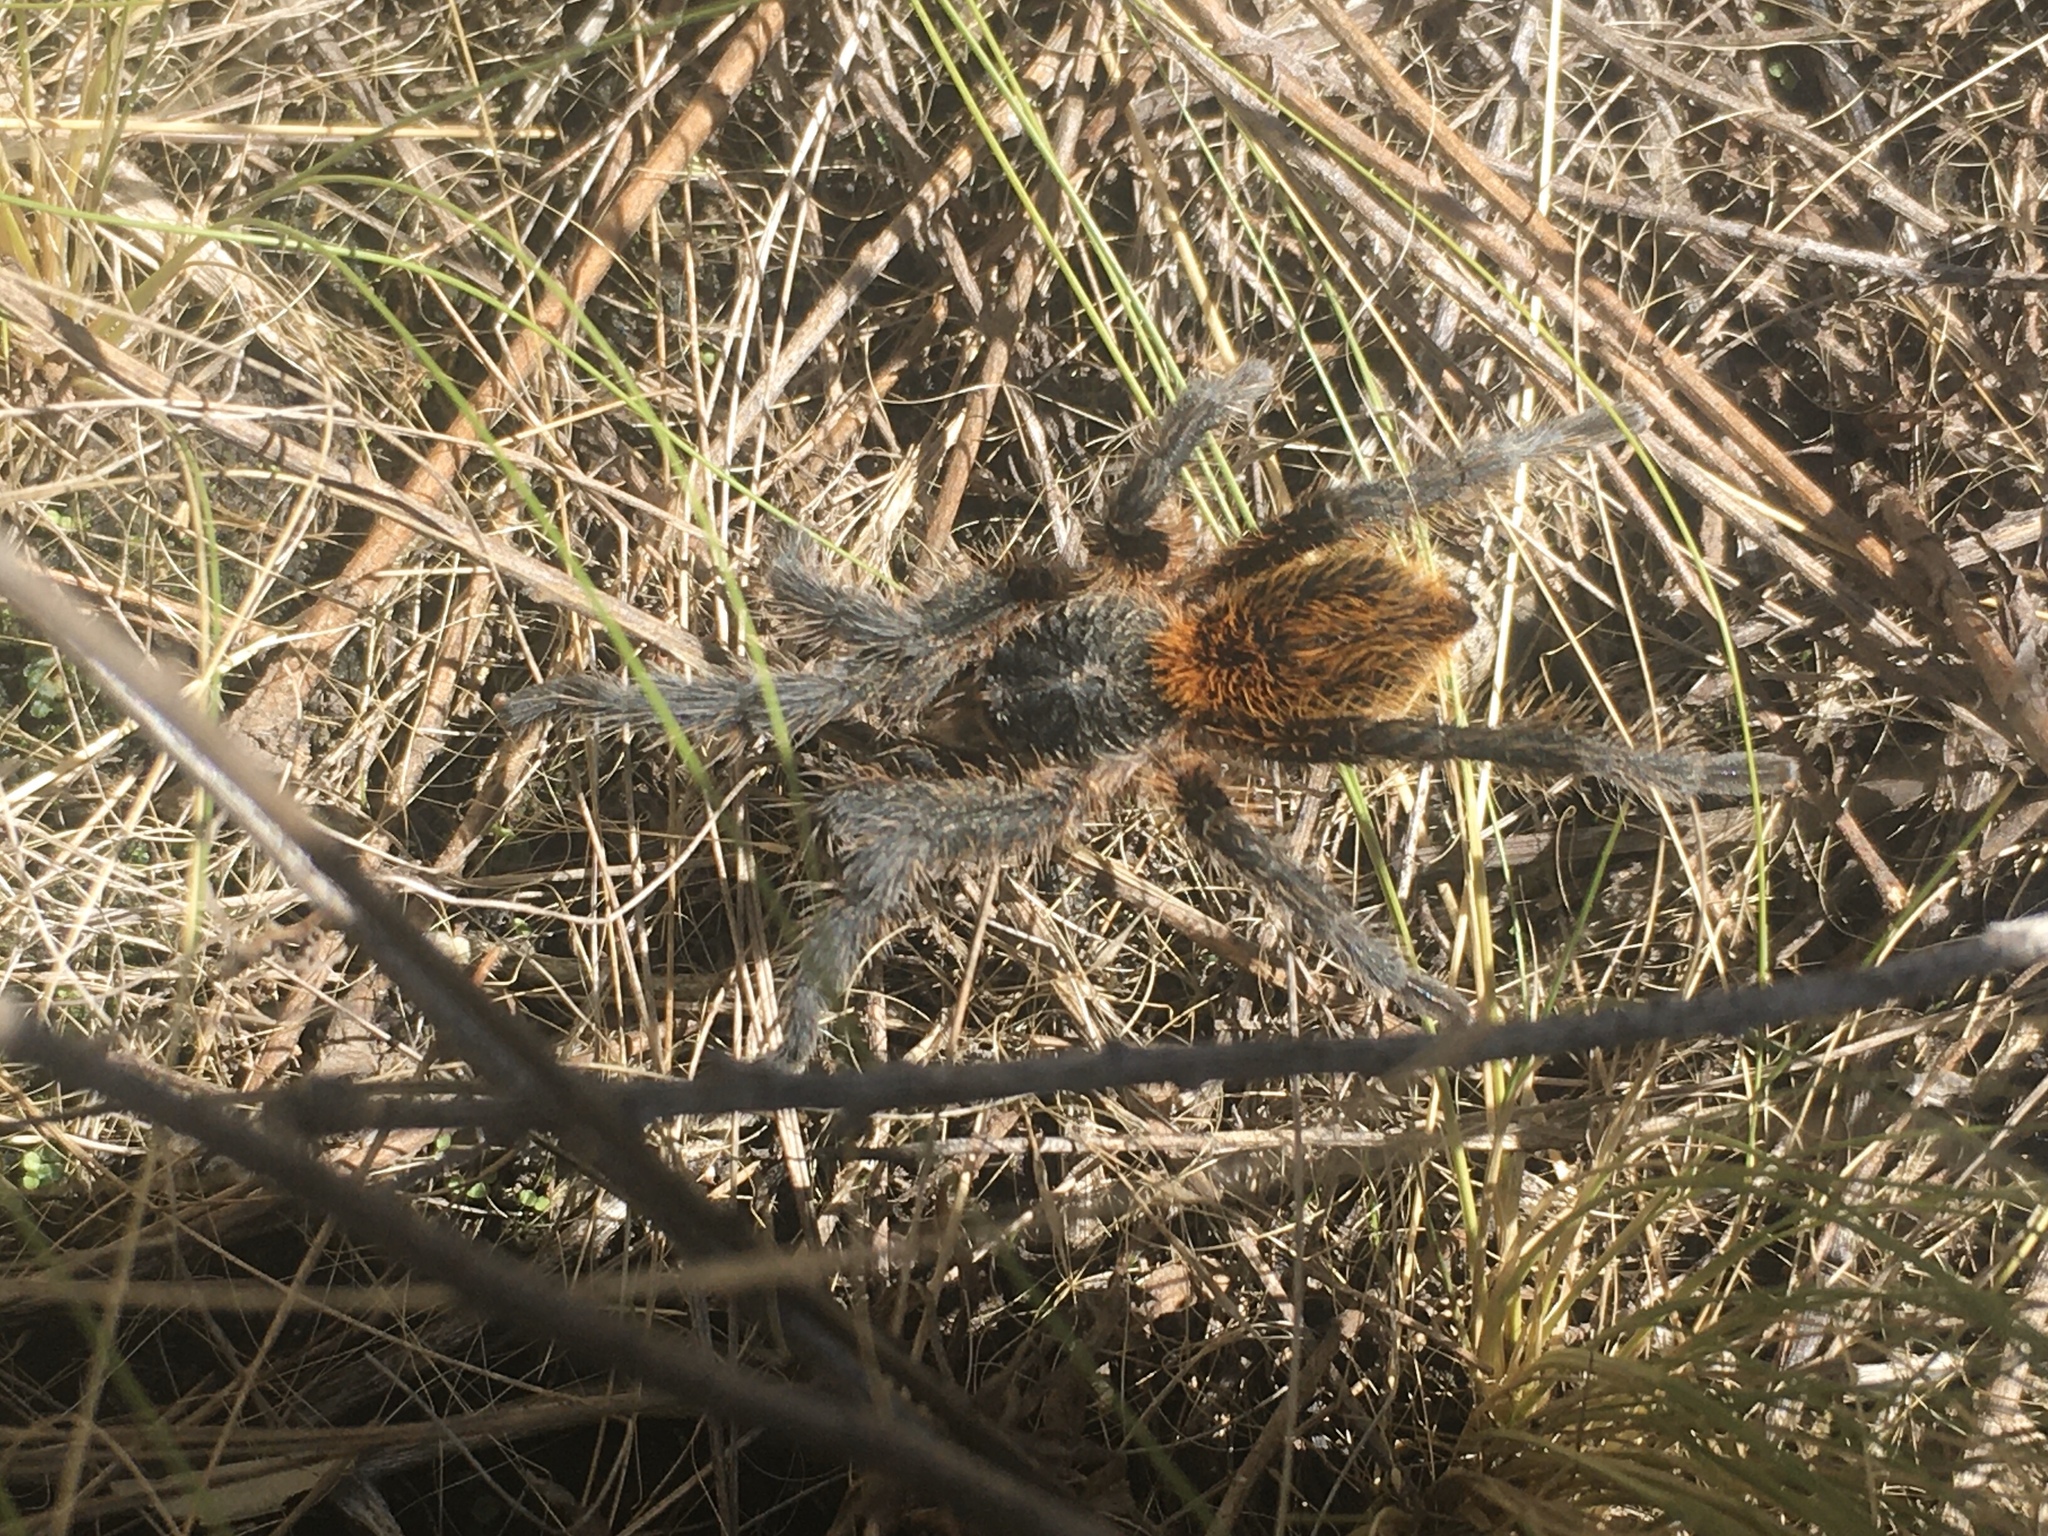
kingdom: Animalia
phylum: Arthropoda
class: Arachnida
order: Araneae
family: Theraphosidae
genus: Plesiopelma
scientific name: Plesiopelma longisternale
